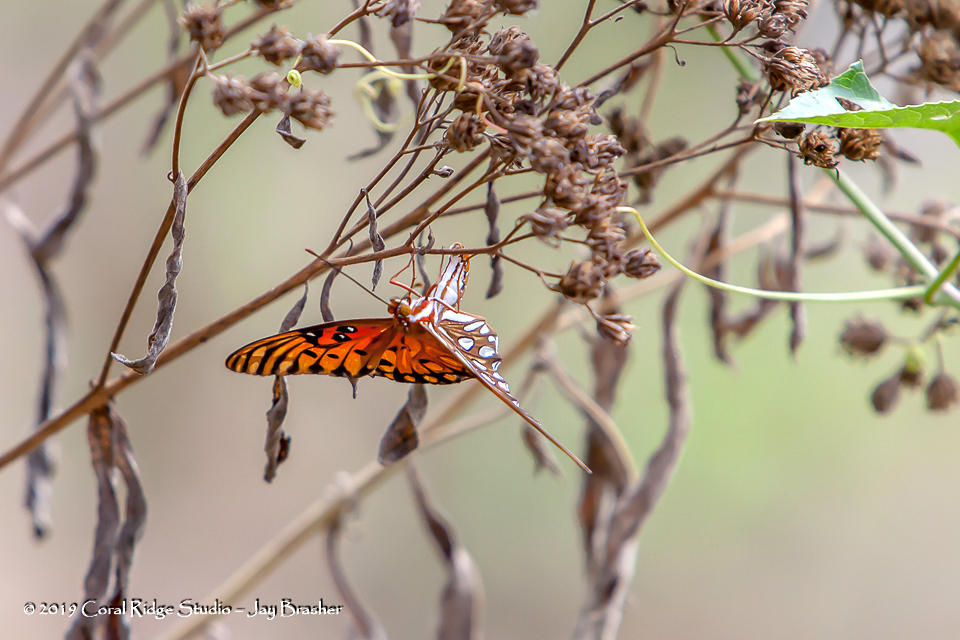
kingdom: Animalia
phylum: Arthropoda
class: Insecta
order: Lepidoptera
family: Nymphalidae
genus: Dione
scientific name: Dione vanillae
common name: Gulf fritillary
